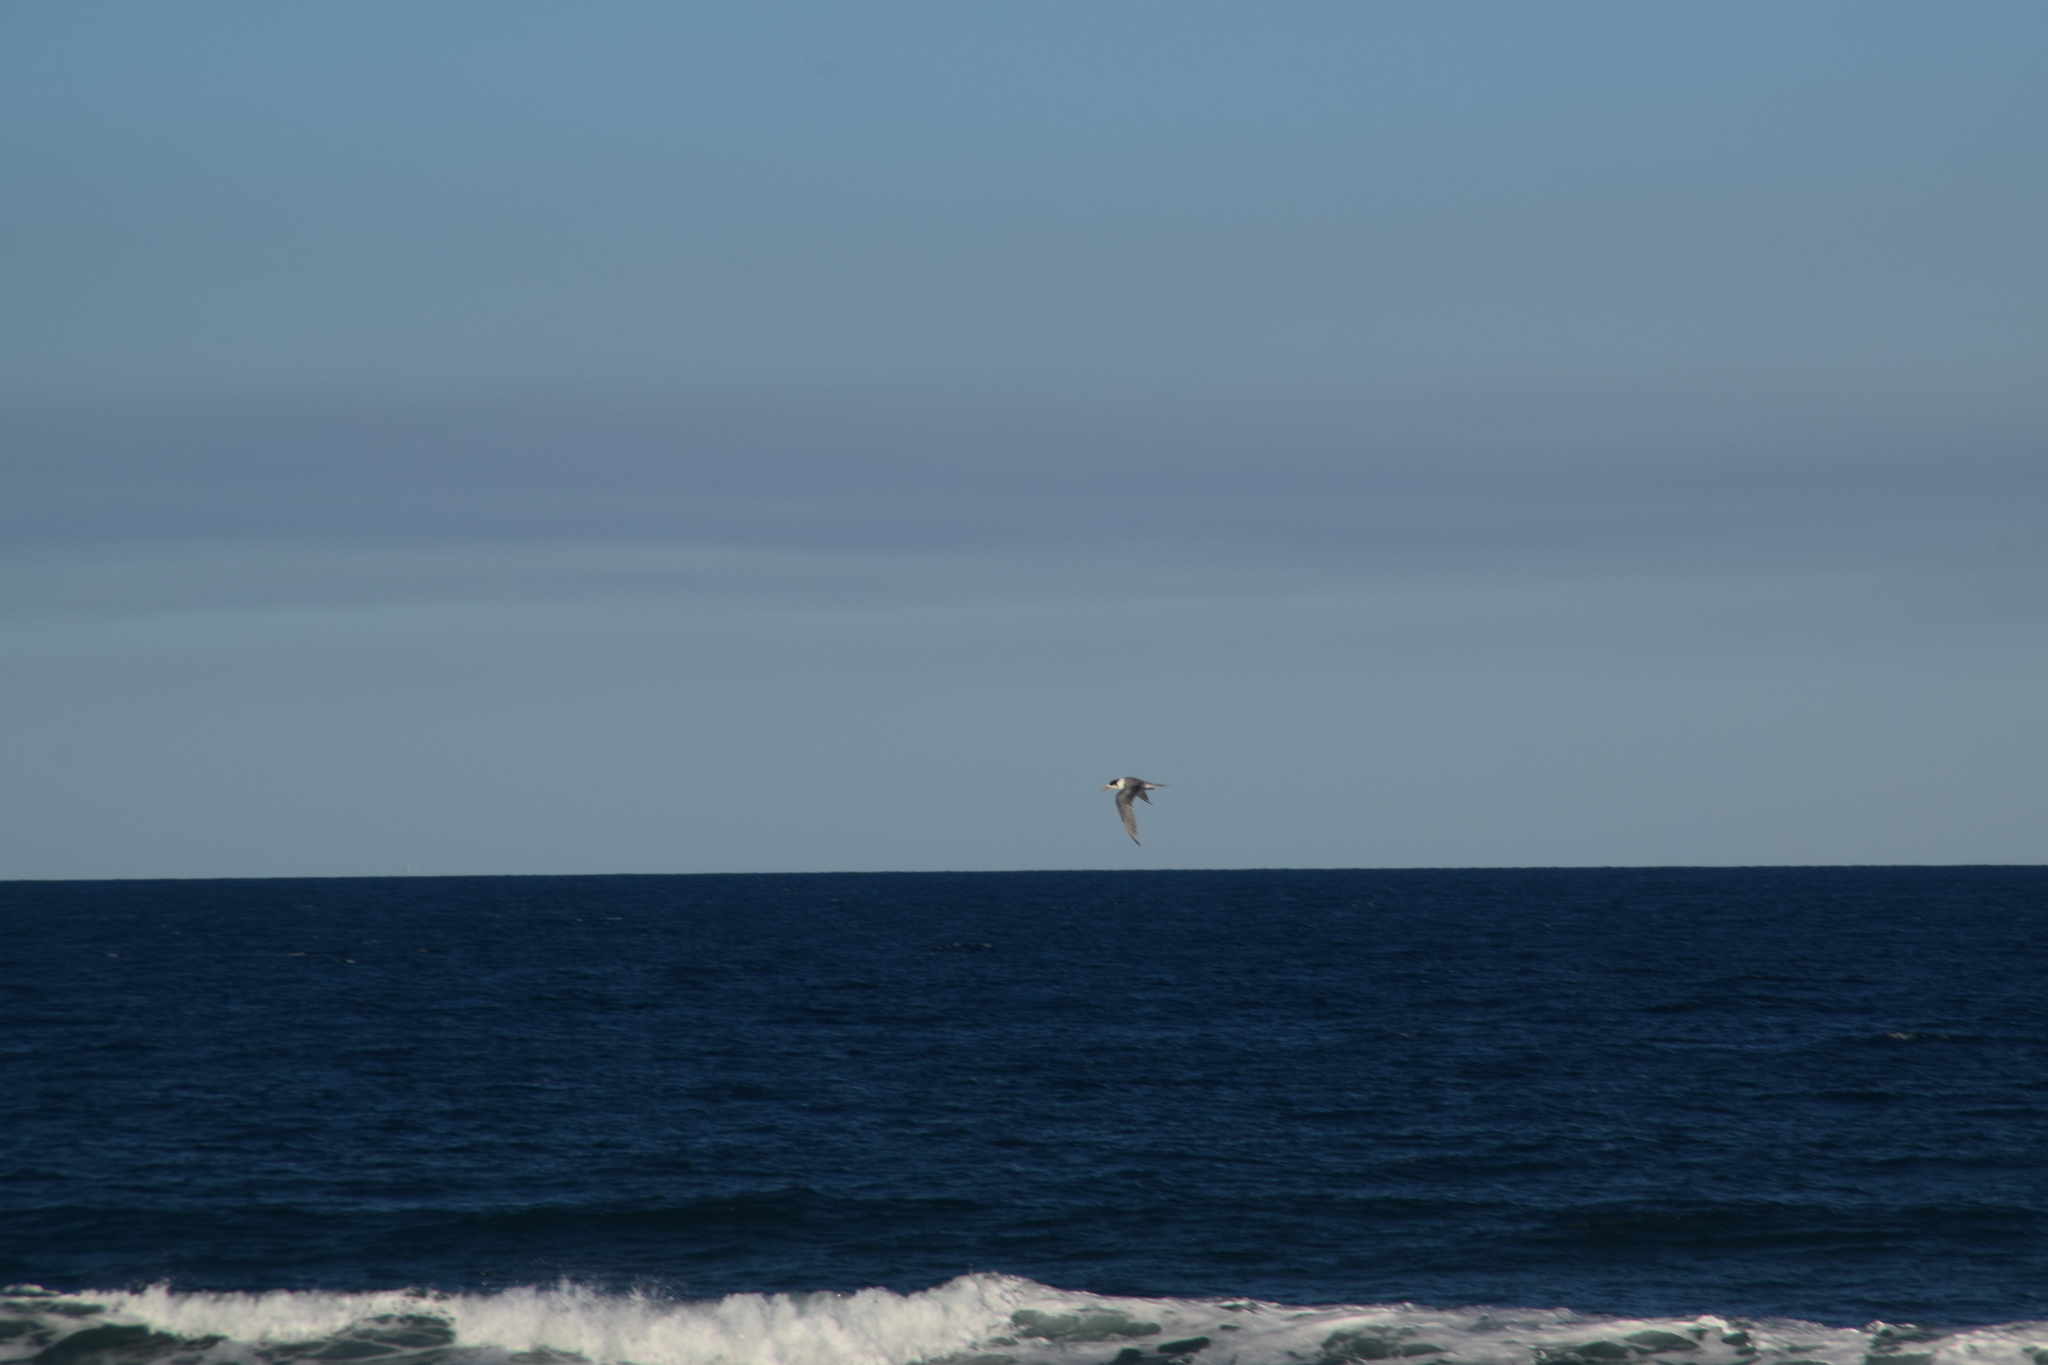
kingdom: Animalia
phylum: Chordata
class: Aves
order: Charadriiformes
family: Laridae
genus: Thalasseus
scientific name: Thalasseus bergii
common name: Greater crested tern
